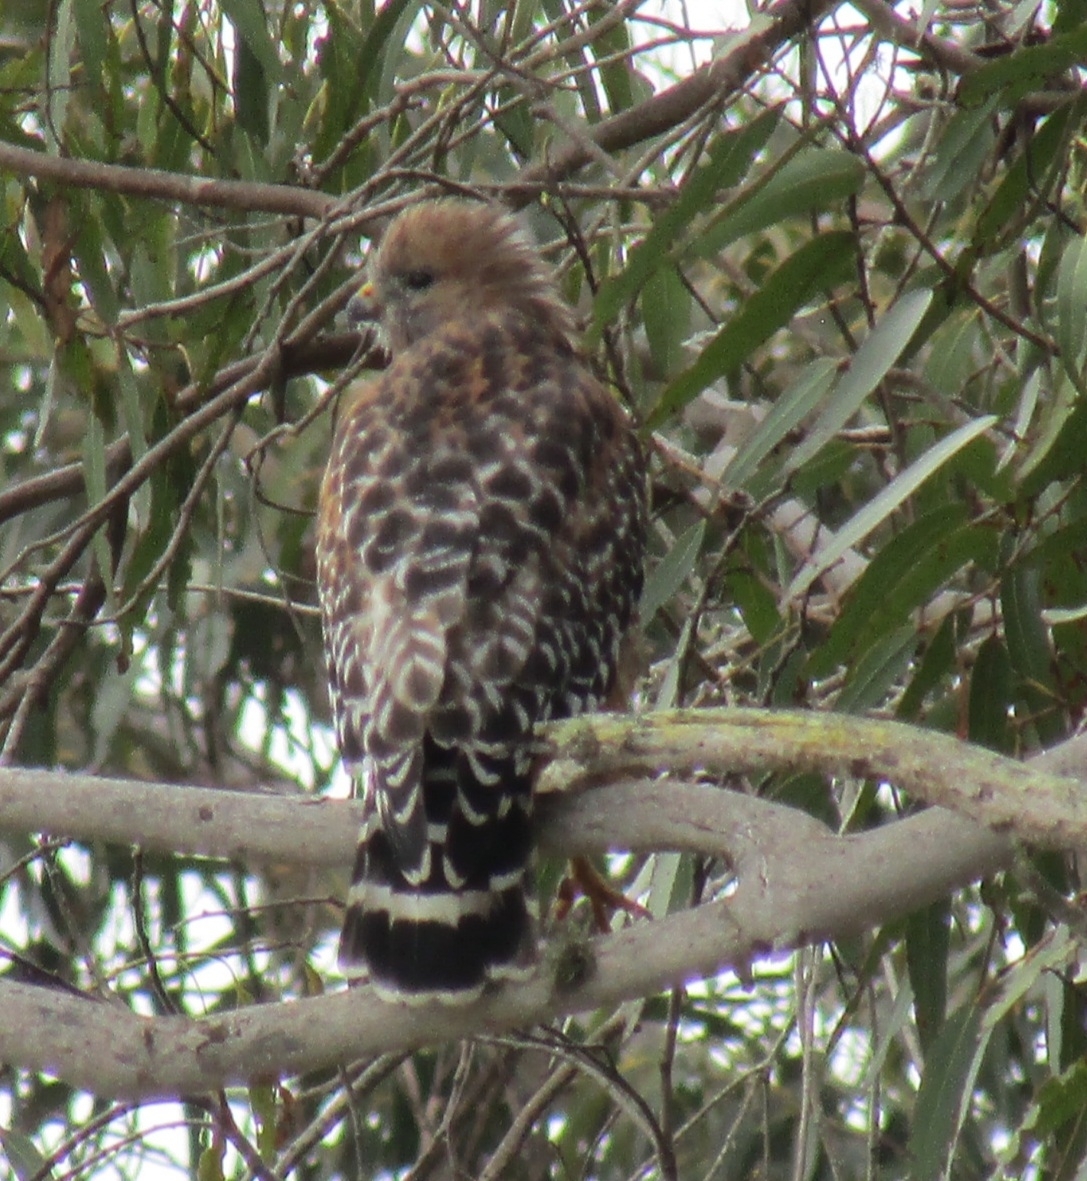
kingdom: Animalia
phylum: Chordata
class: Aves
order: Accipitriformes
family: Accipitridae
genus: Buteo
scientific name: Buteo lineatus
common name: Red-shouldered hawk
